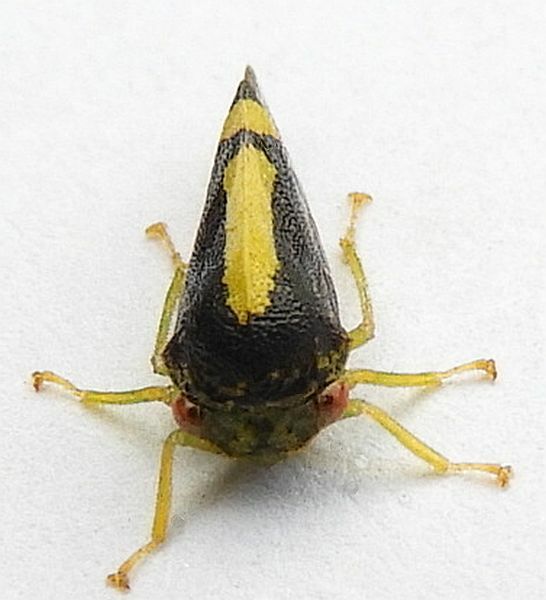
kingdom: Animalia
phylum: Arthropoda
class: Insecta
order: Hemiptera
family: Membracidae
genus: Atymna
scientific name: Atymna querci
